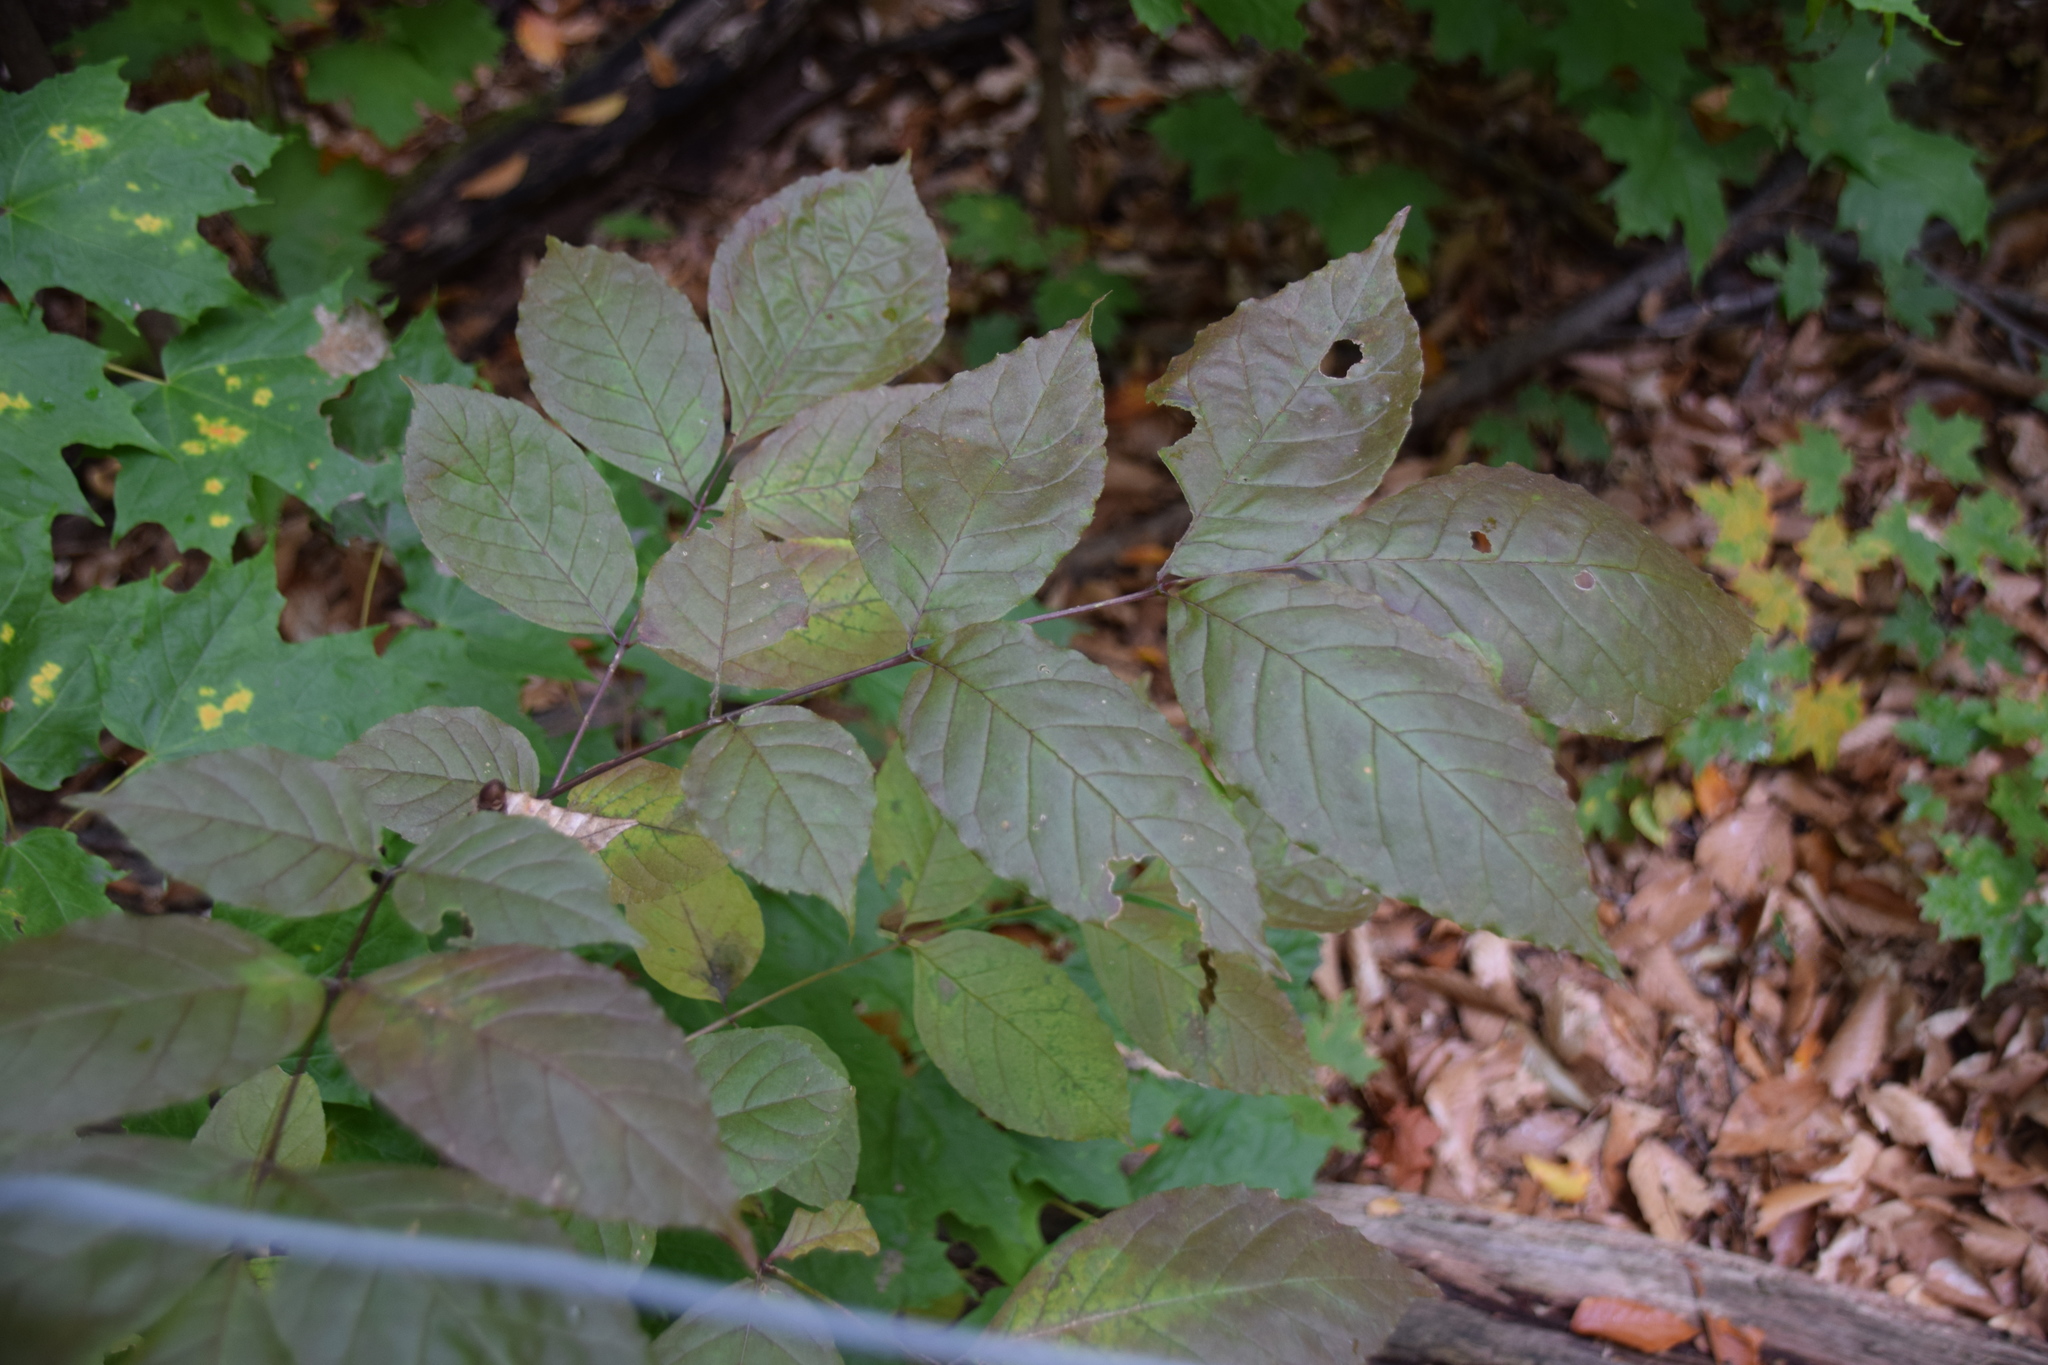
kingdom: Plantae
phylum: Tracheophyta
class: Magnoliopsida
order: Lamiales
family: Oleaceae
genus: Fraxinus
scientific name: Fraxinus americana
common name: White ash
